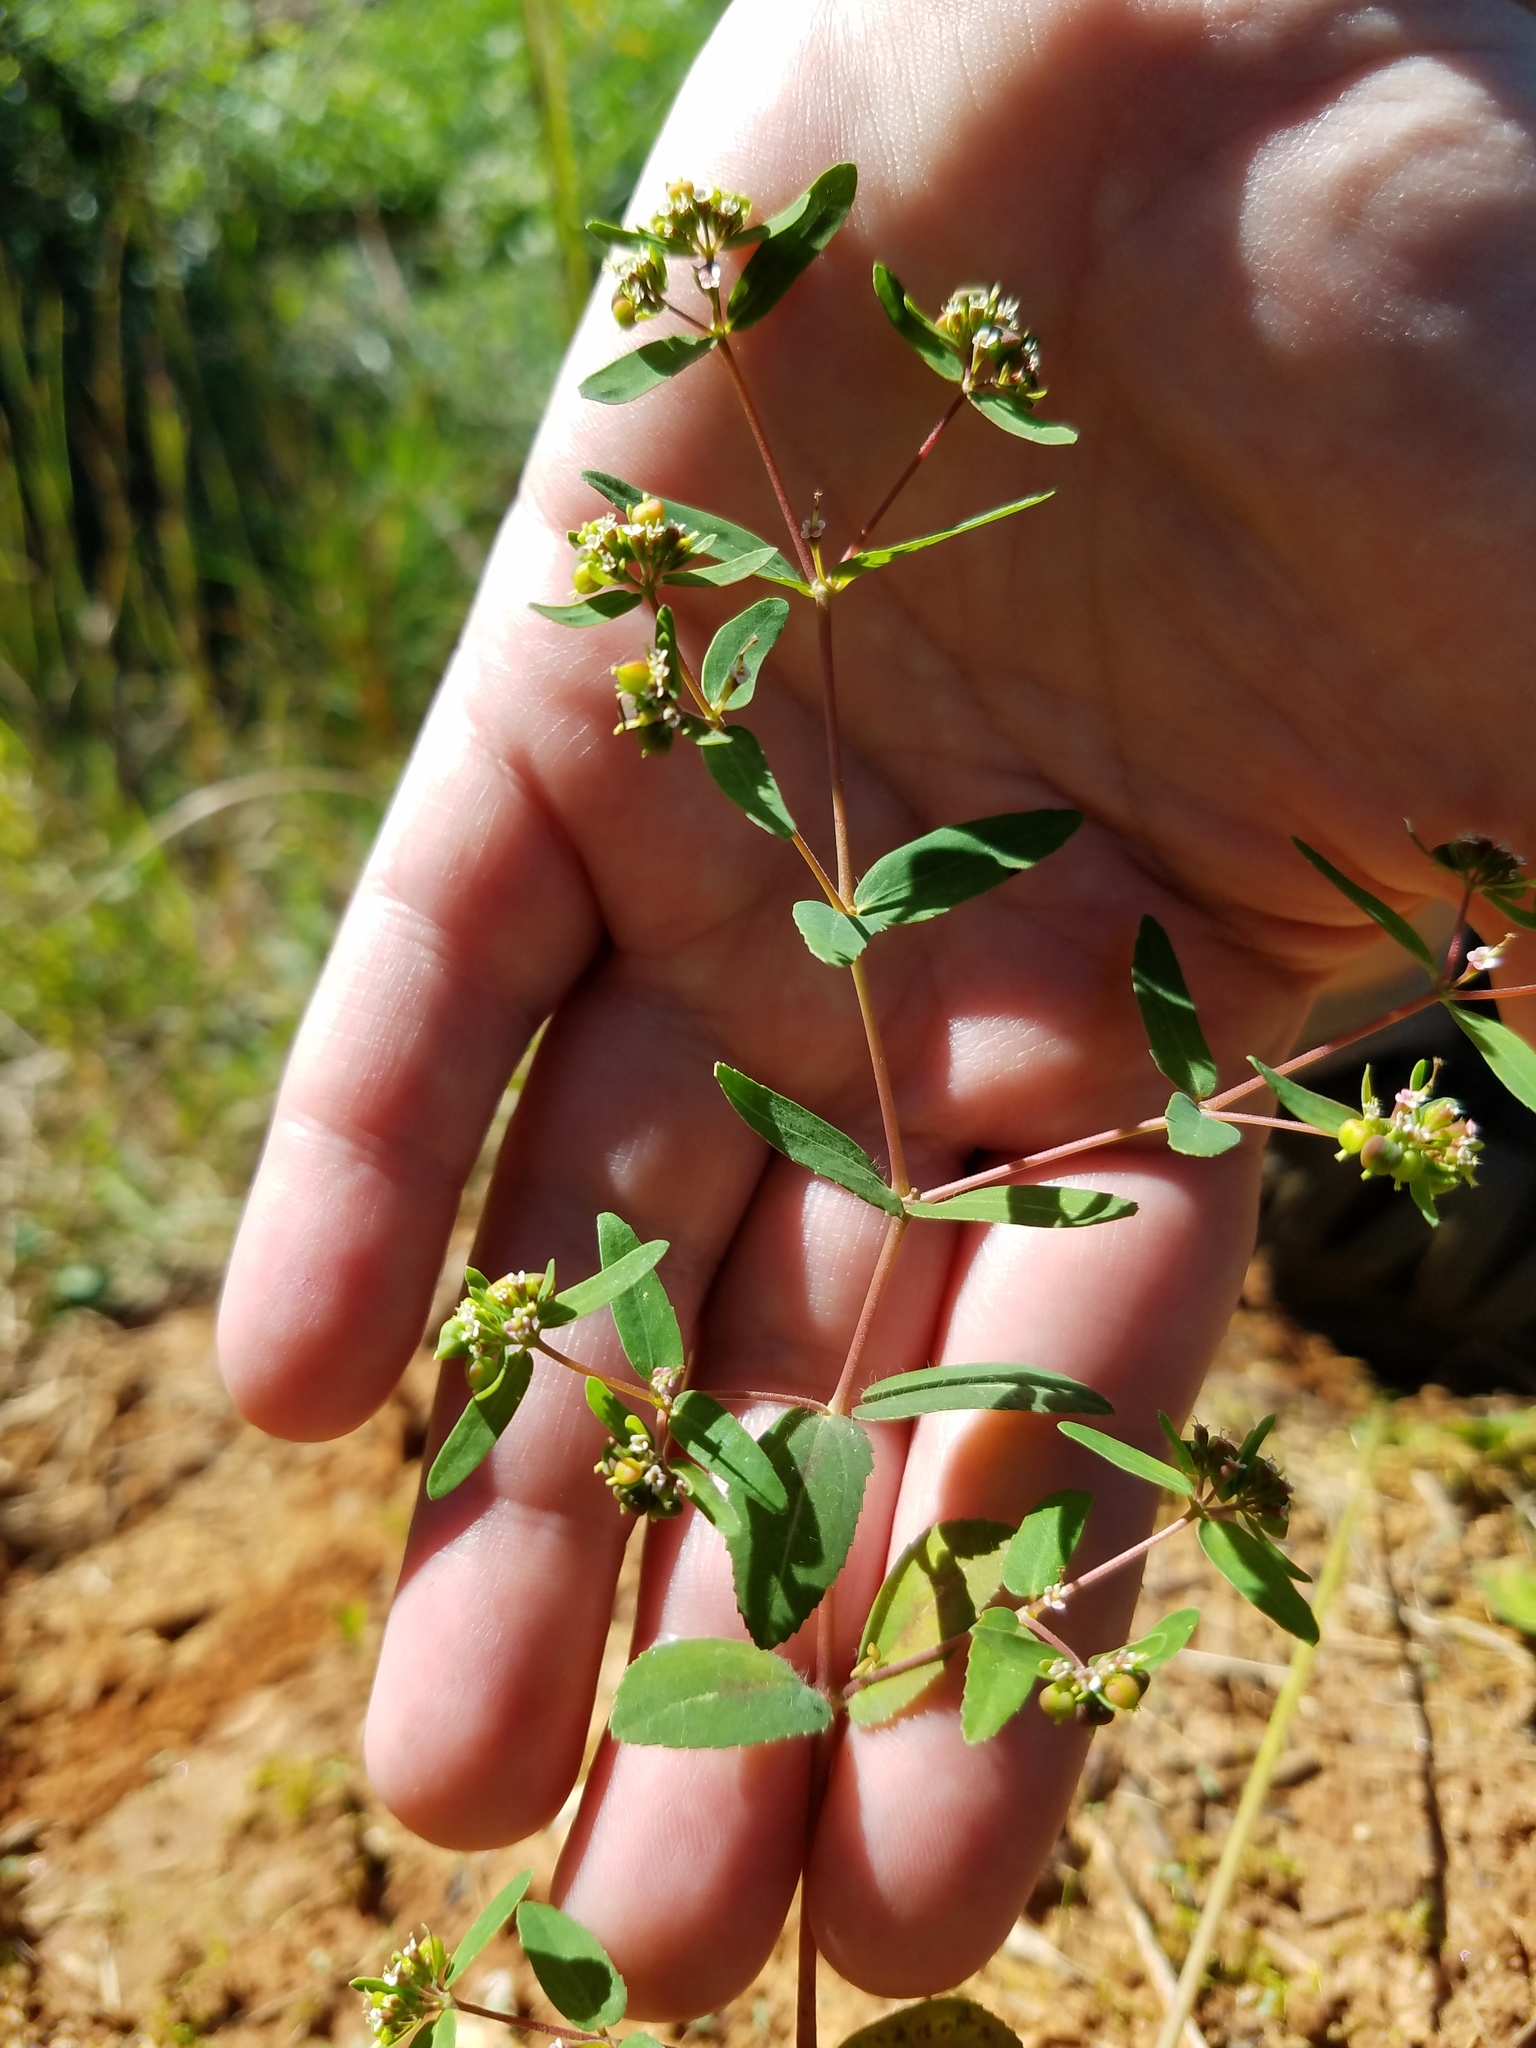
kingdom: Plantae
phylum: Tracheophyta
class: Magnoliopsida
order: Malpighiales
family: Euphorbiaceae
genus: Euphorbia
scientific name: Euphorbia nutans
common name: Eyebane
